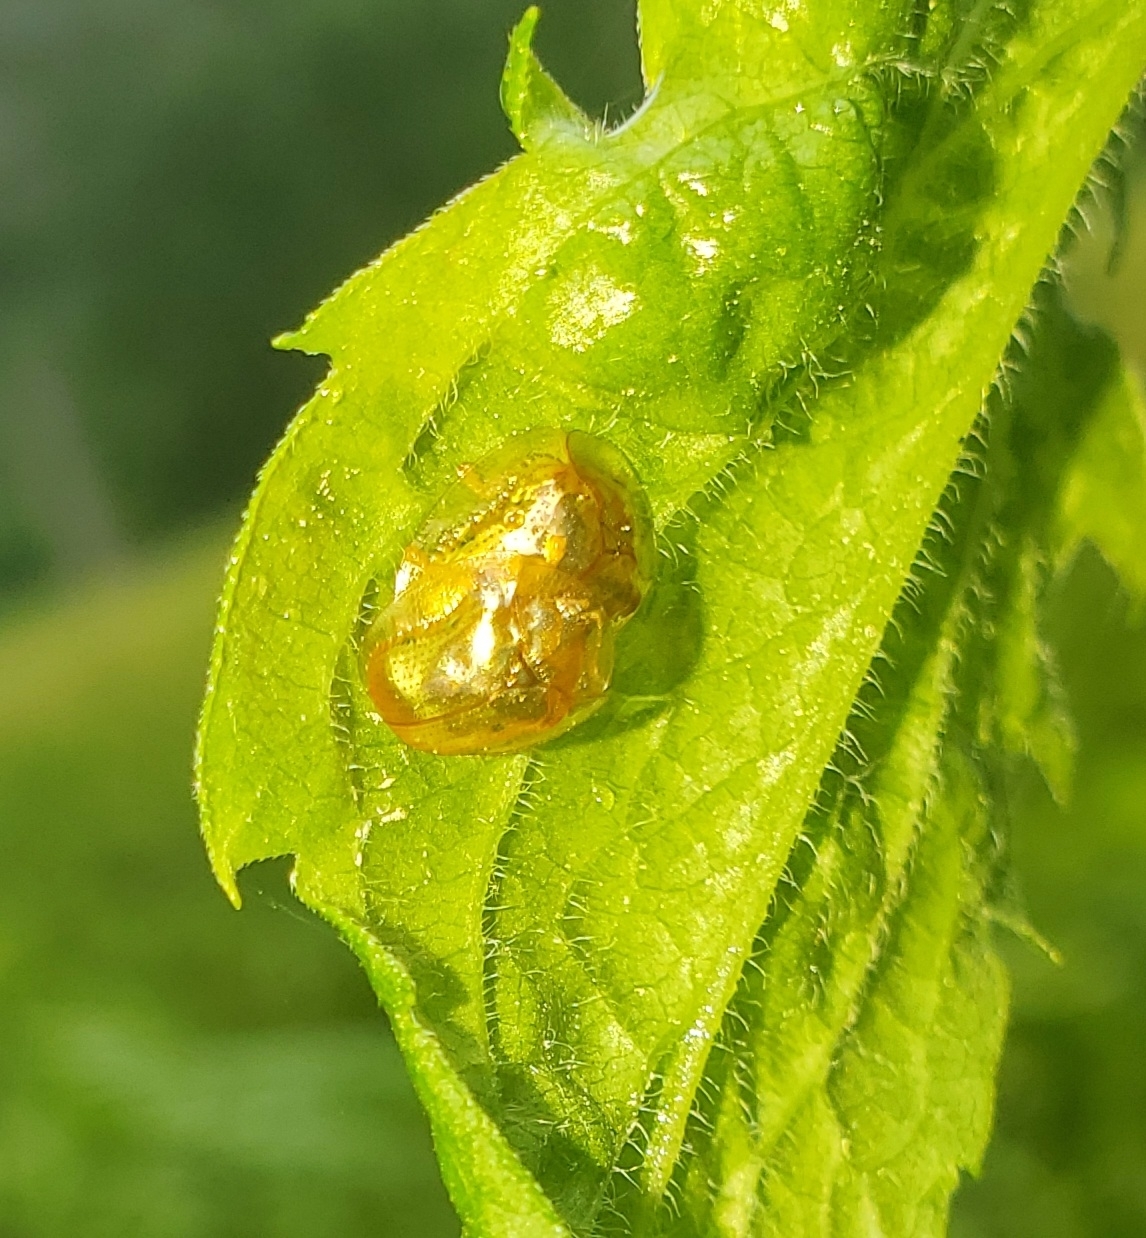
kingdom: Animalia
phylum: Arthropoda
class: Insecta
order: Coleoptera
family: Chrysomelidae
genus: Charidotella
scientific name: Charidotella sexpunctata
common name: Golden tortoise beetle
